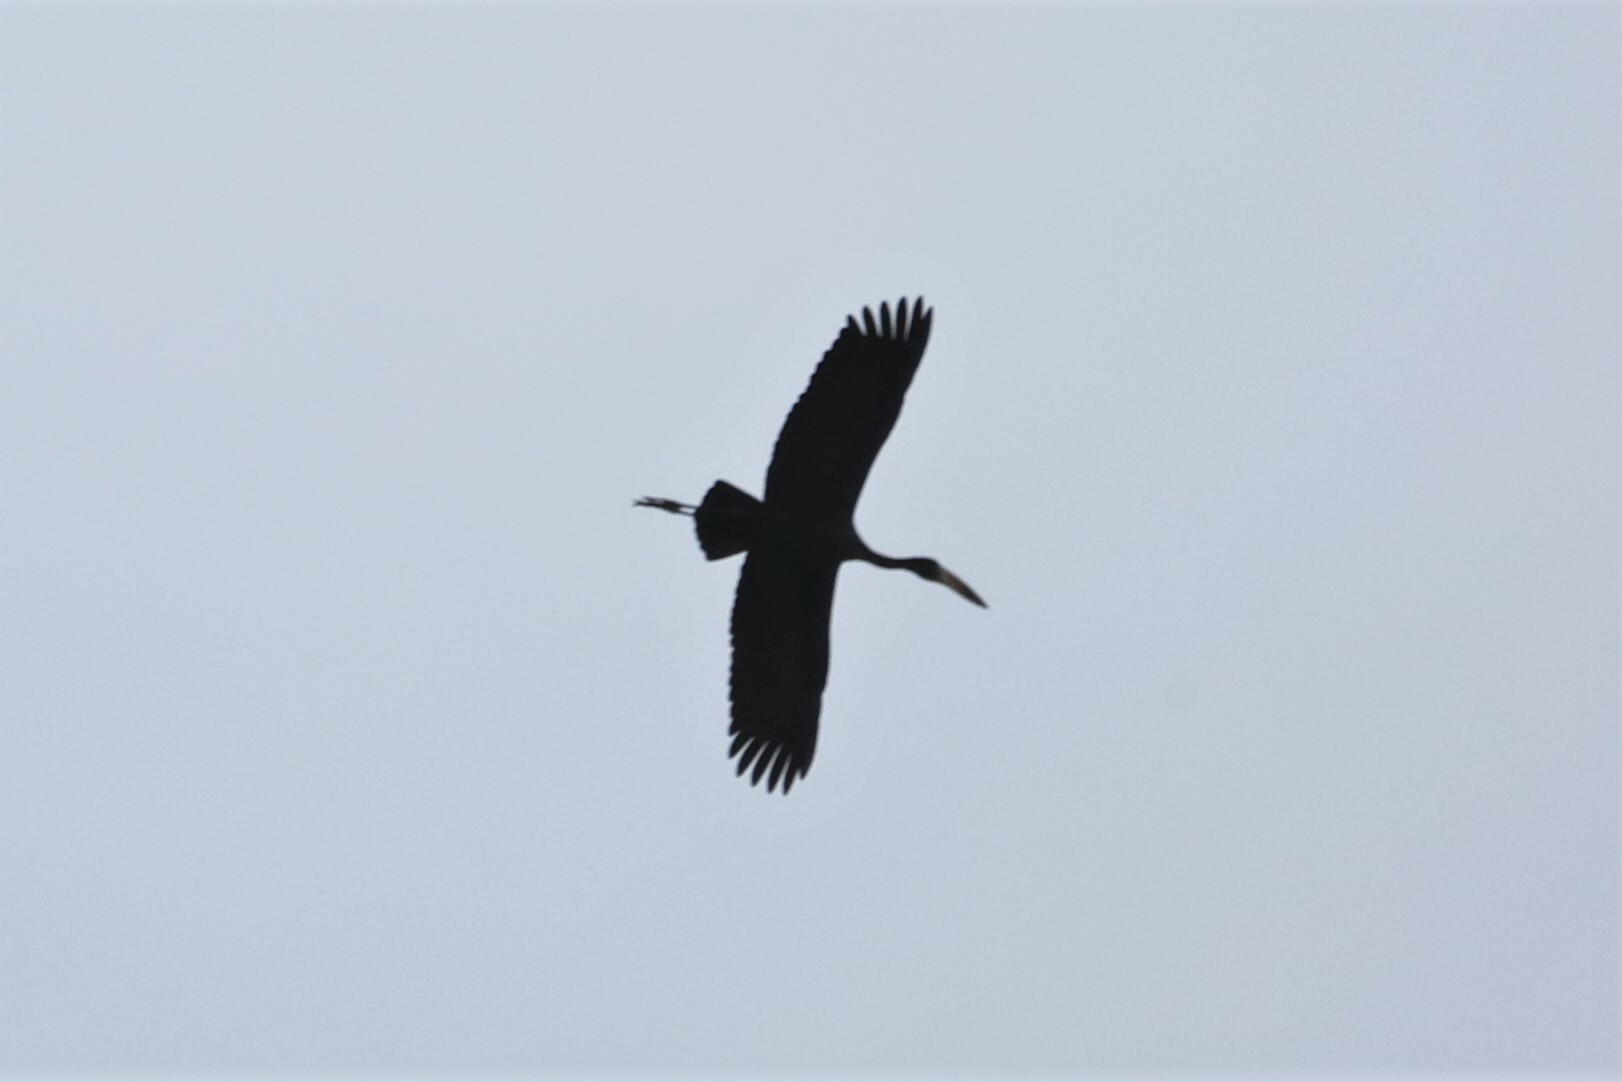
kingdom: Animalia
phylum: Chordata
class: Aves
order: Ciconiiformes
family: Ciconiidae
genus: Anastomus
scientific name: Anastomus lamelligerus
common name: African openbill
